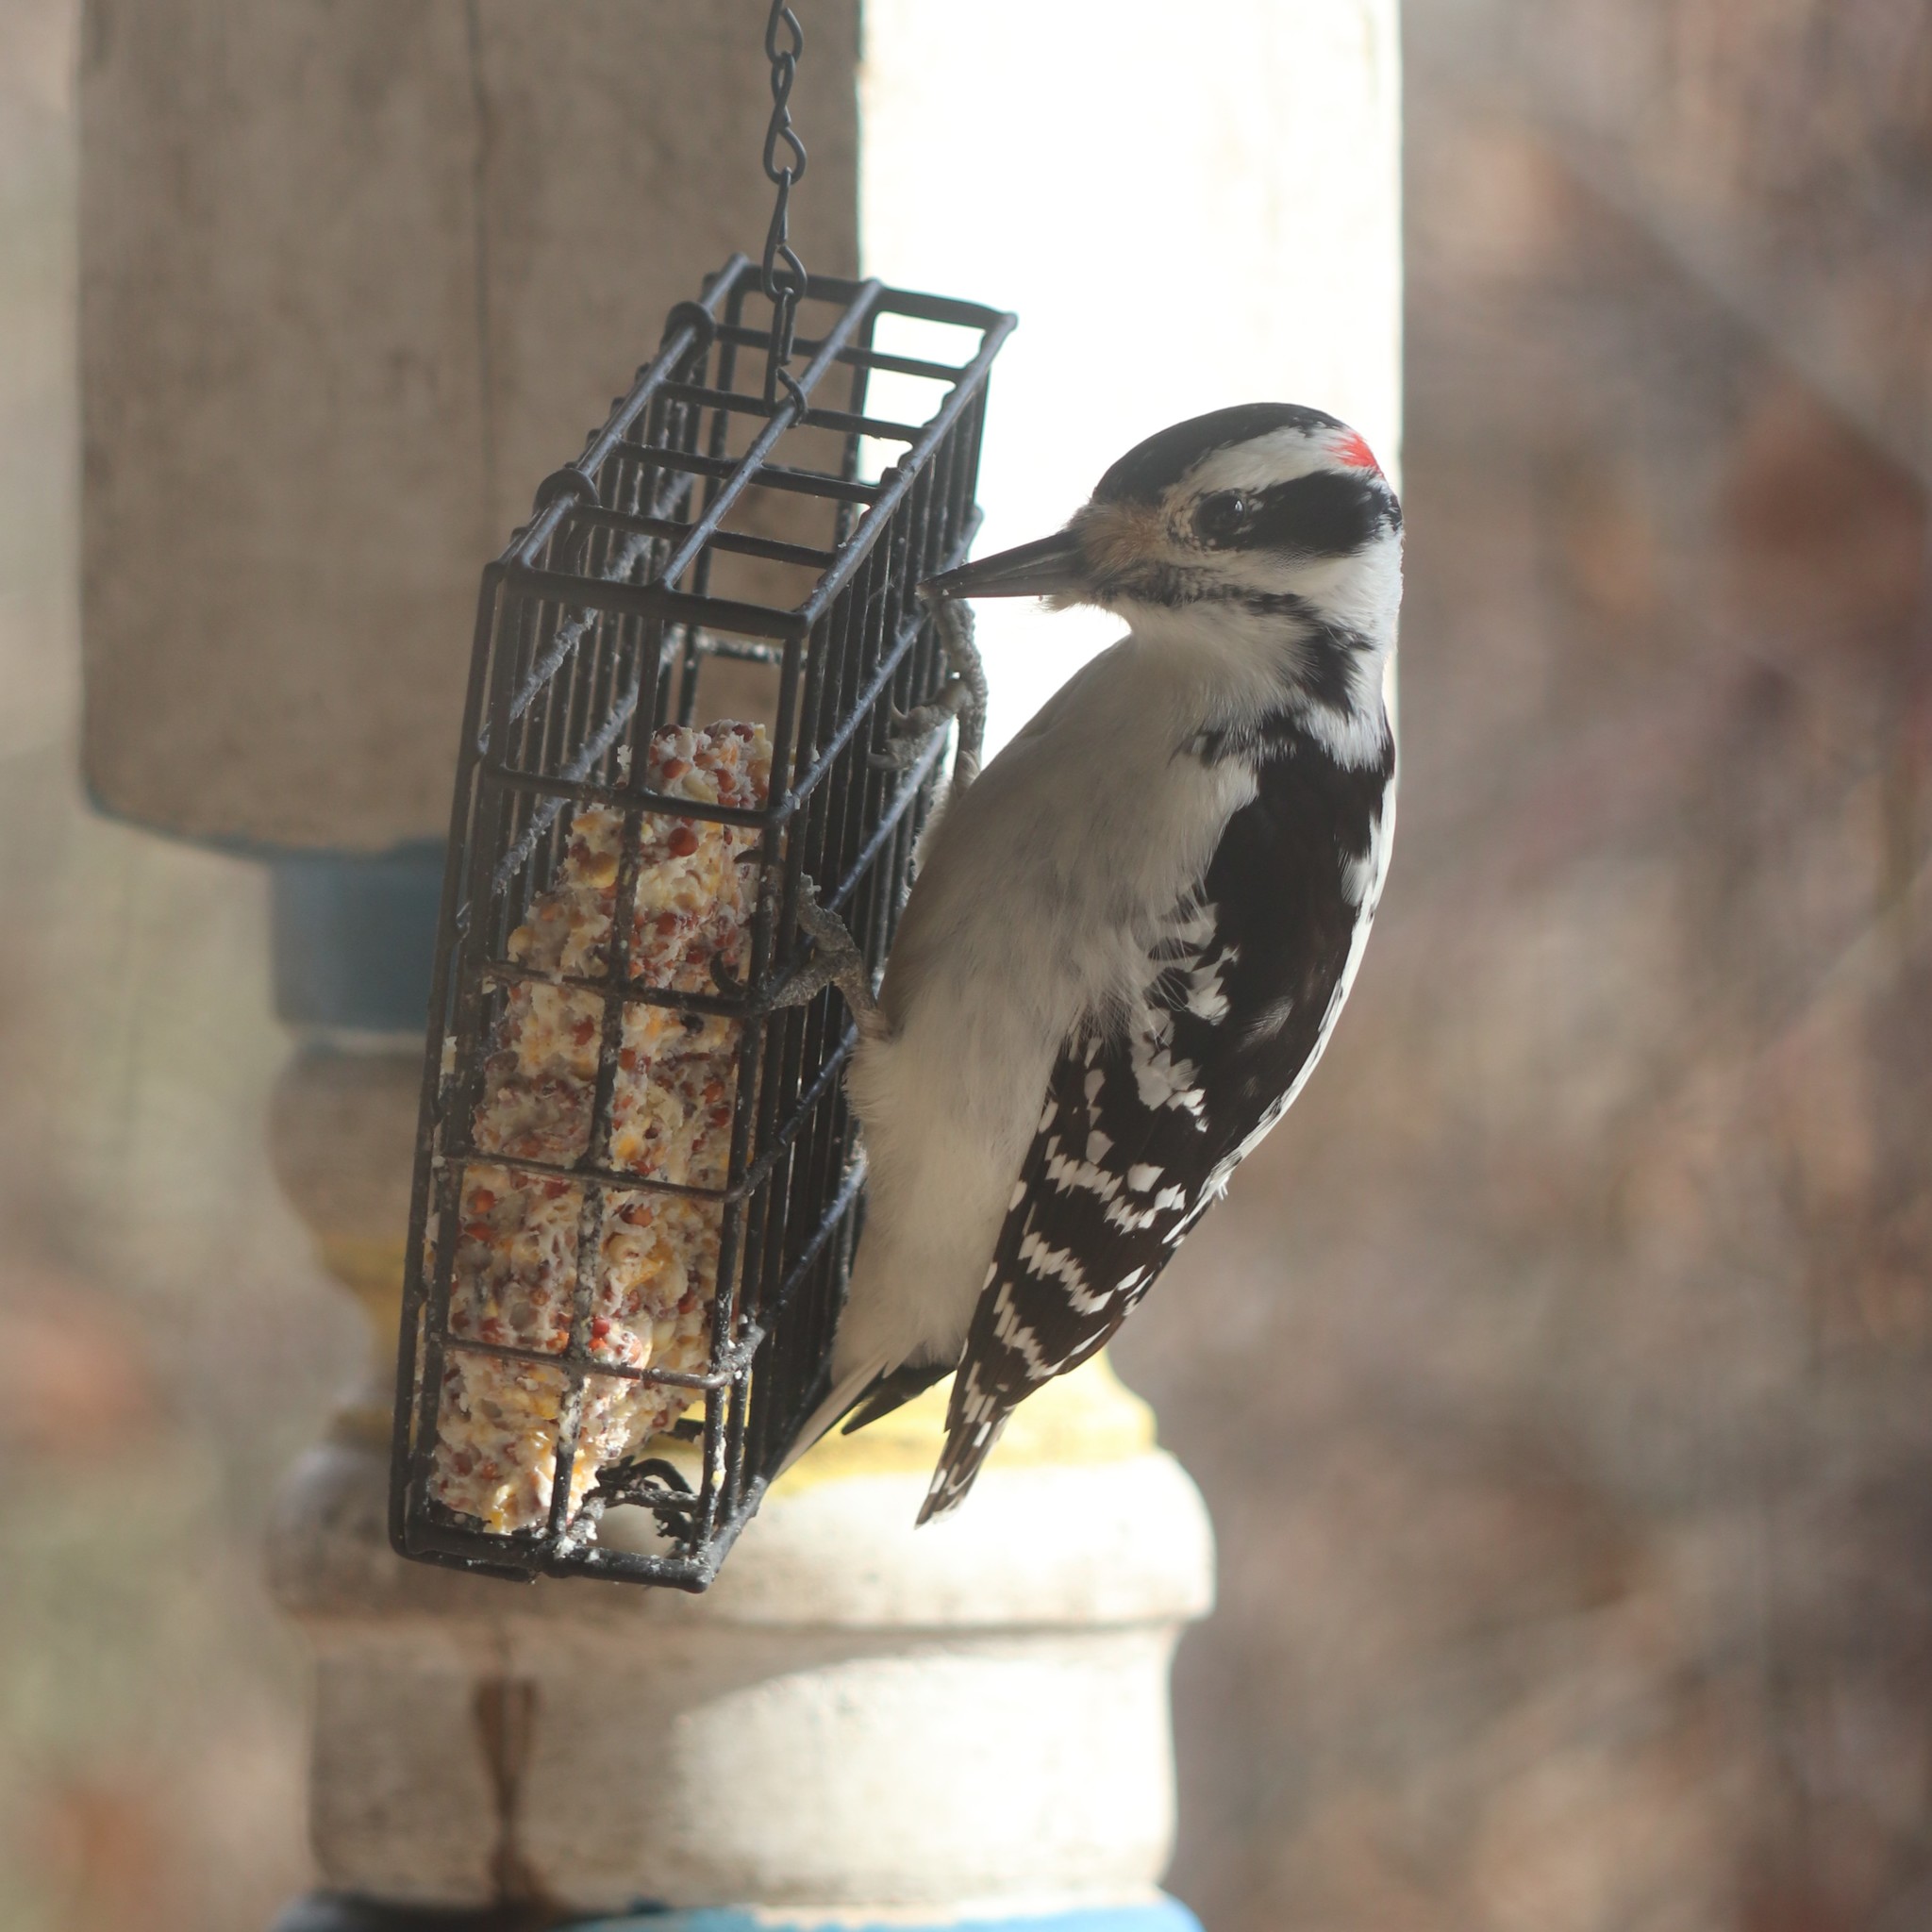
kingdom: Animalia
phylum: Chordata
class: Aves
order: Piciformes
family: Picidae
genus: Leuconotopicus
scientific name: Leuconotopicus villosus
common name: Hairy woodpecker
